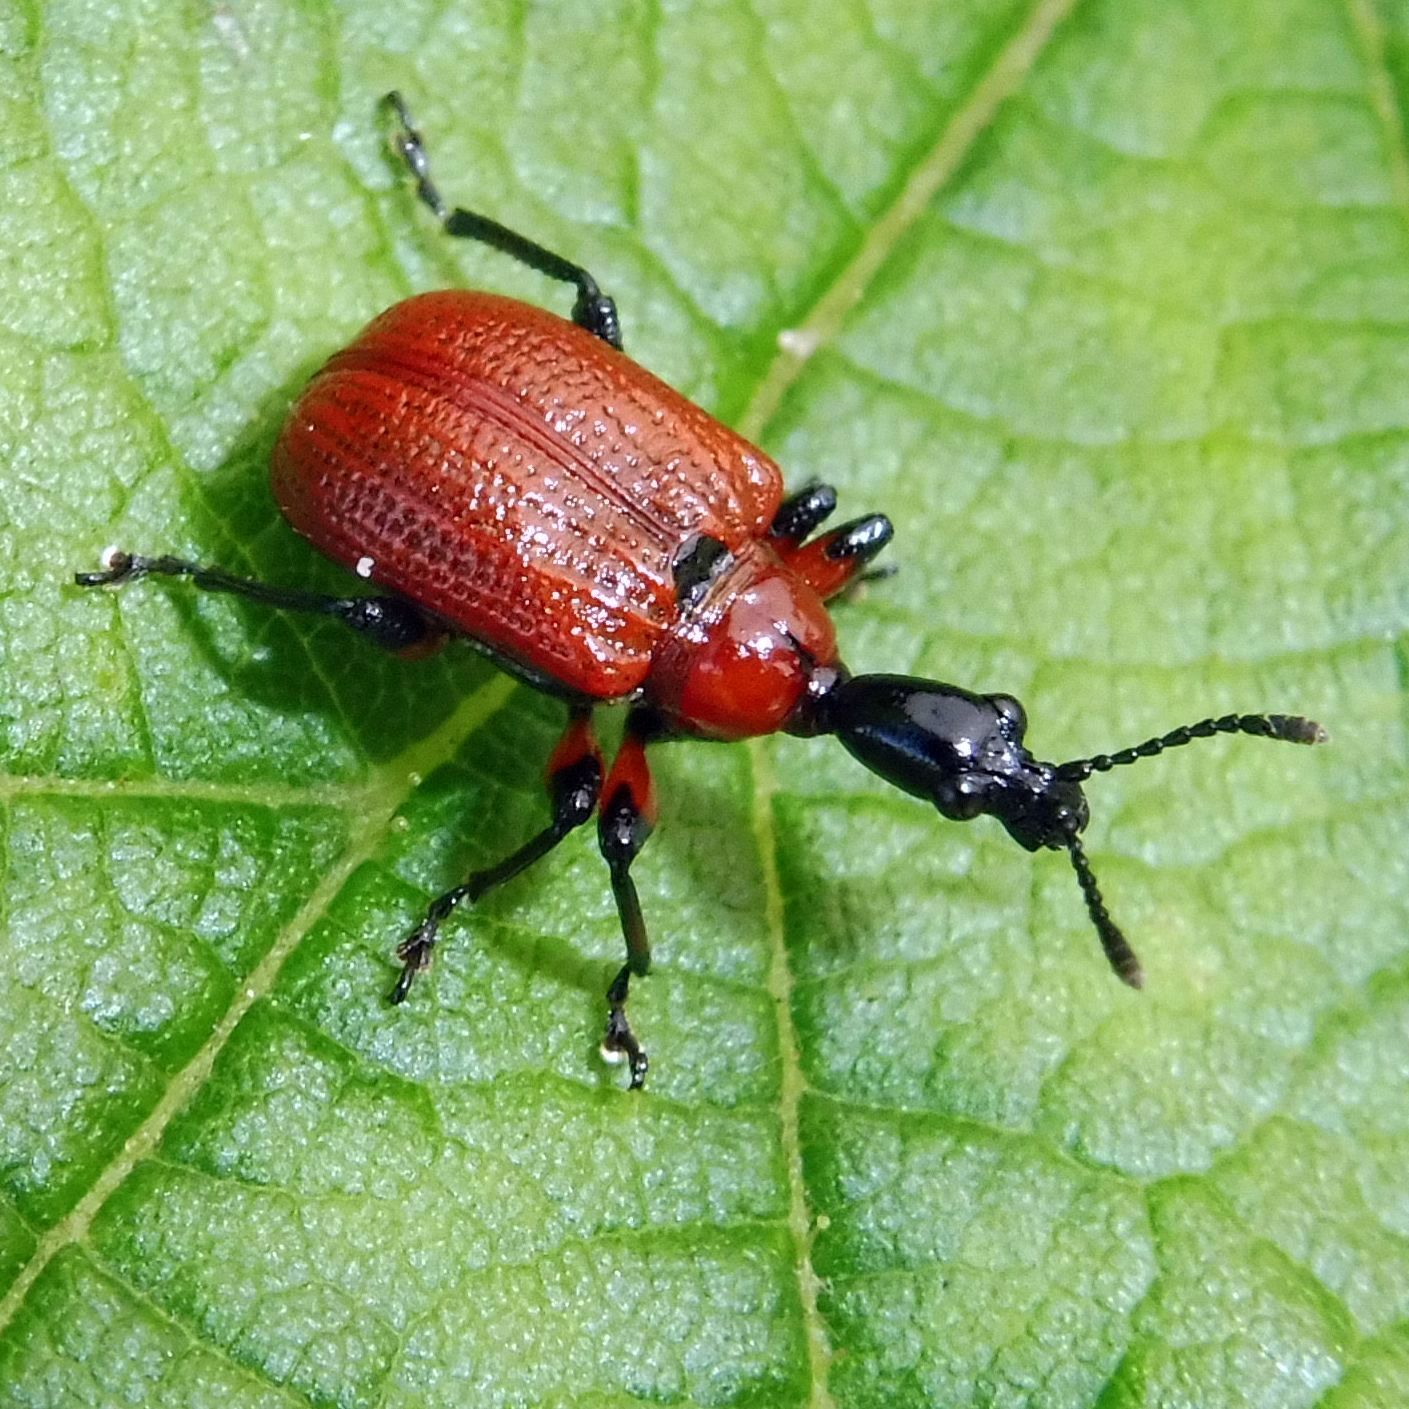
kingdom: Animalia
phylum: Arthropoda
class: Insecta
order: Coleoptera
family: Attelabidae
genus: Apoderus
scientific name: Apoderus coryli
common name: Hazel leaf roller
